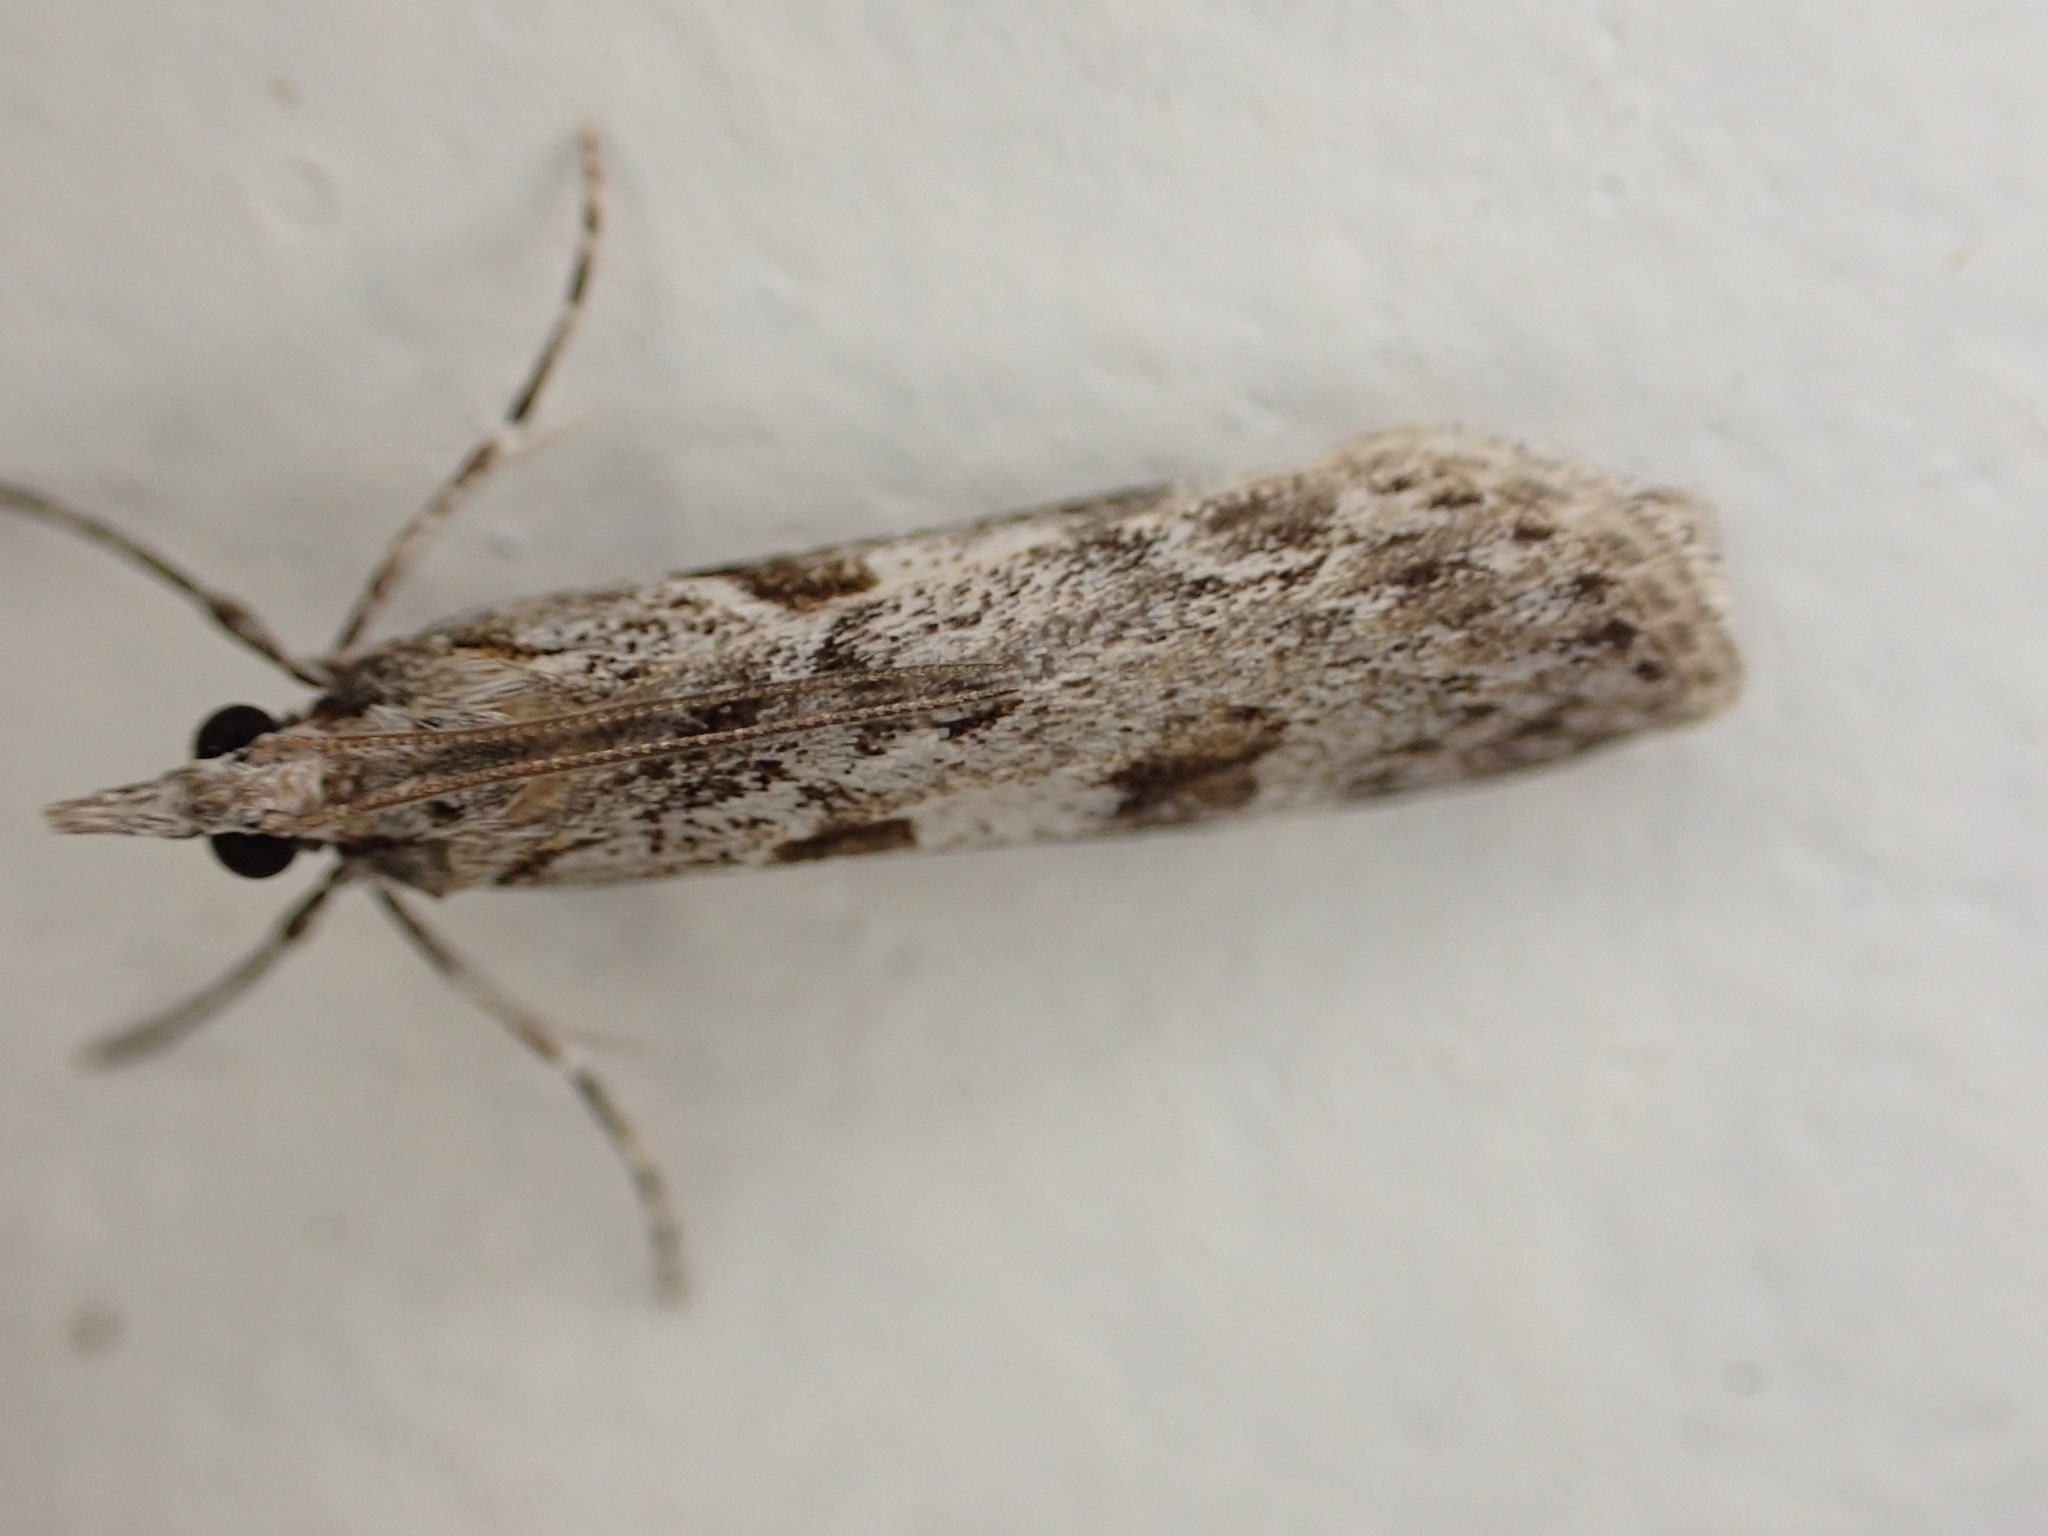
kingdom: Animalia
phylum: Arthropoda
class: Insecta
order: Lepidoptera
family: Crambidae
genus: Scoparia
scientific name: Scoparia halopis
